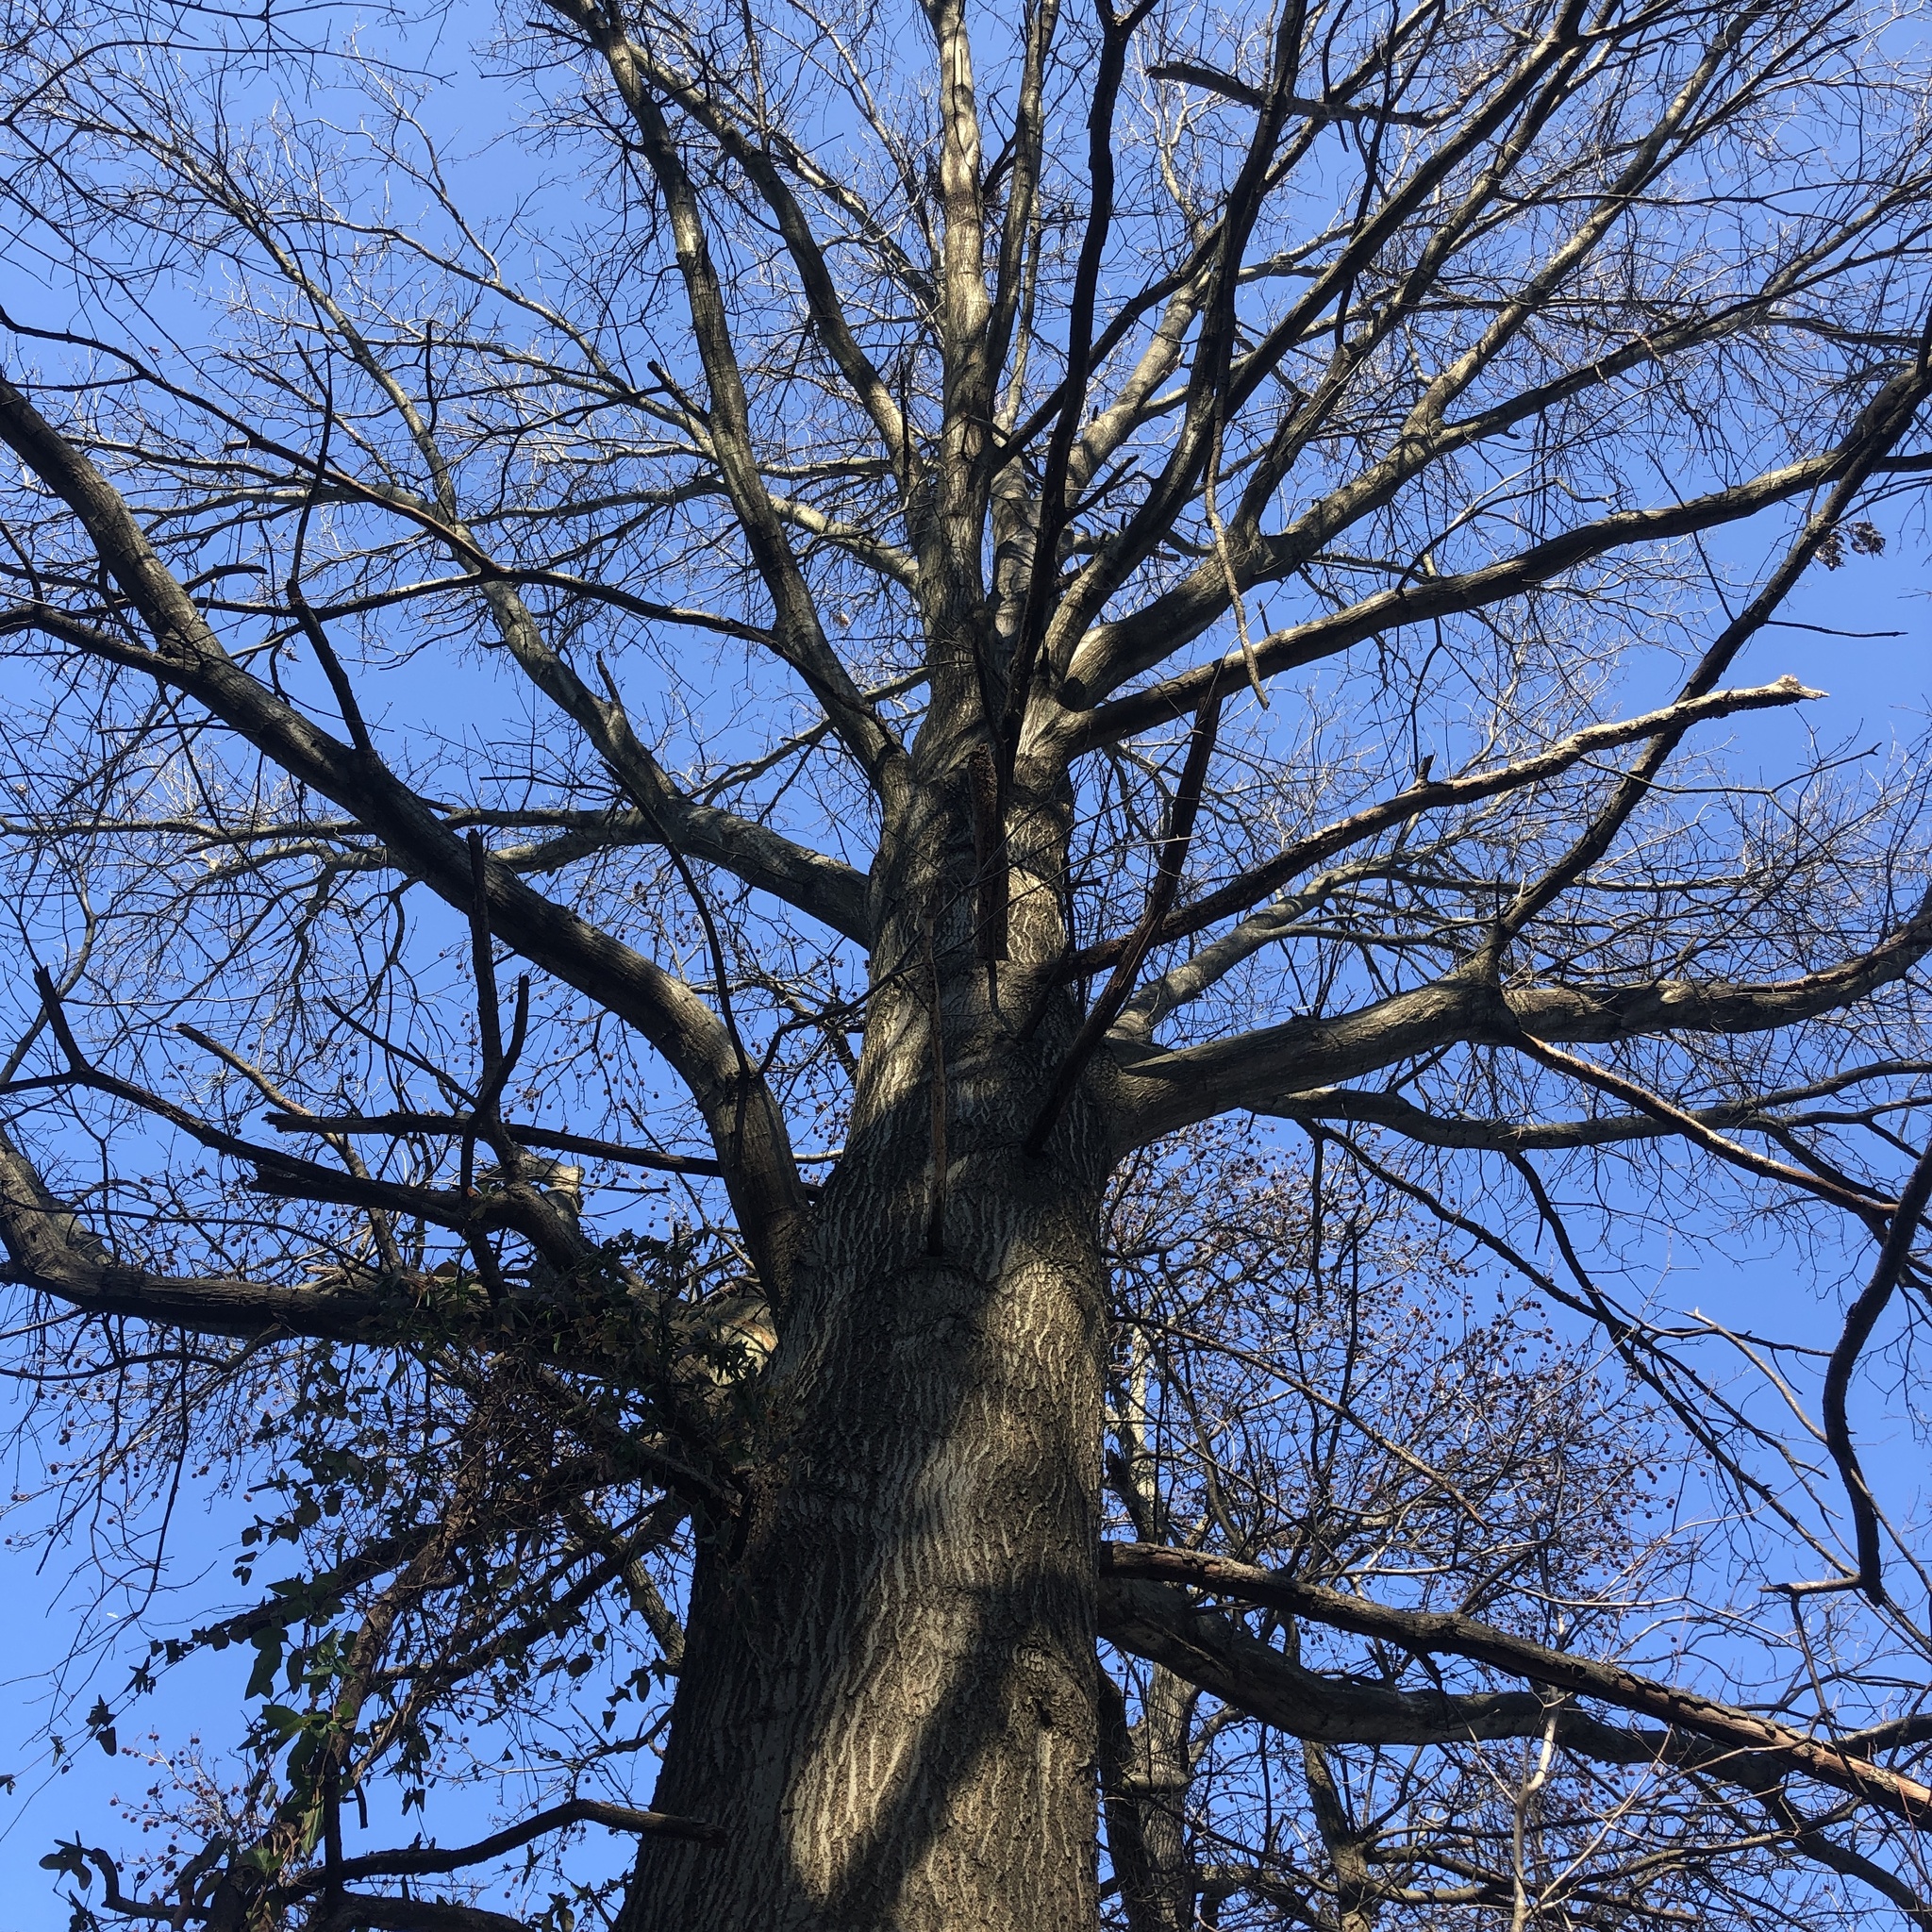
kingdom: Plantae
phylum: Tracheophyta
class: Magnoliopsida
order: Fagales
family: Fagaceae
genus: Quercus
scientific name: Quercus palustris
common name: Pin oak
